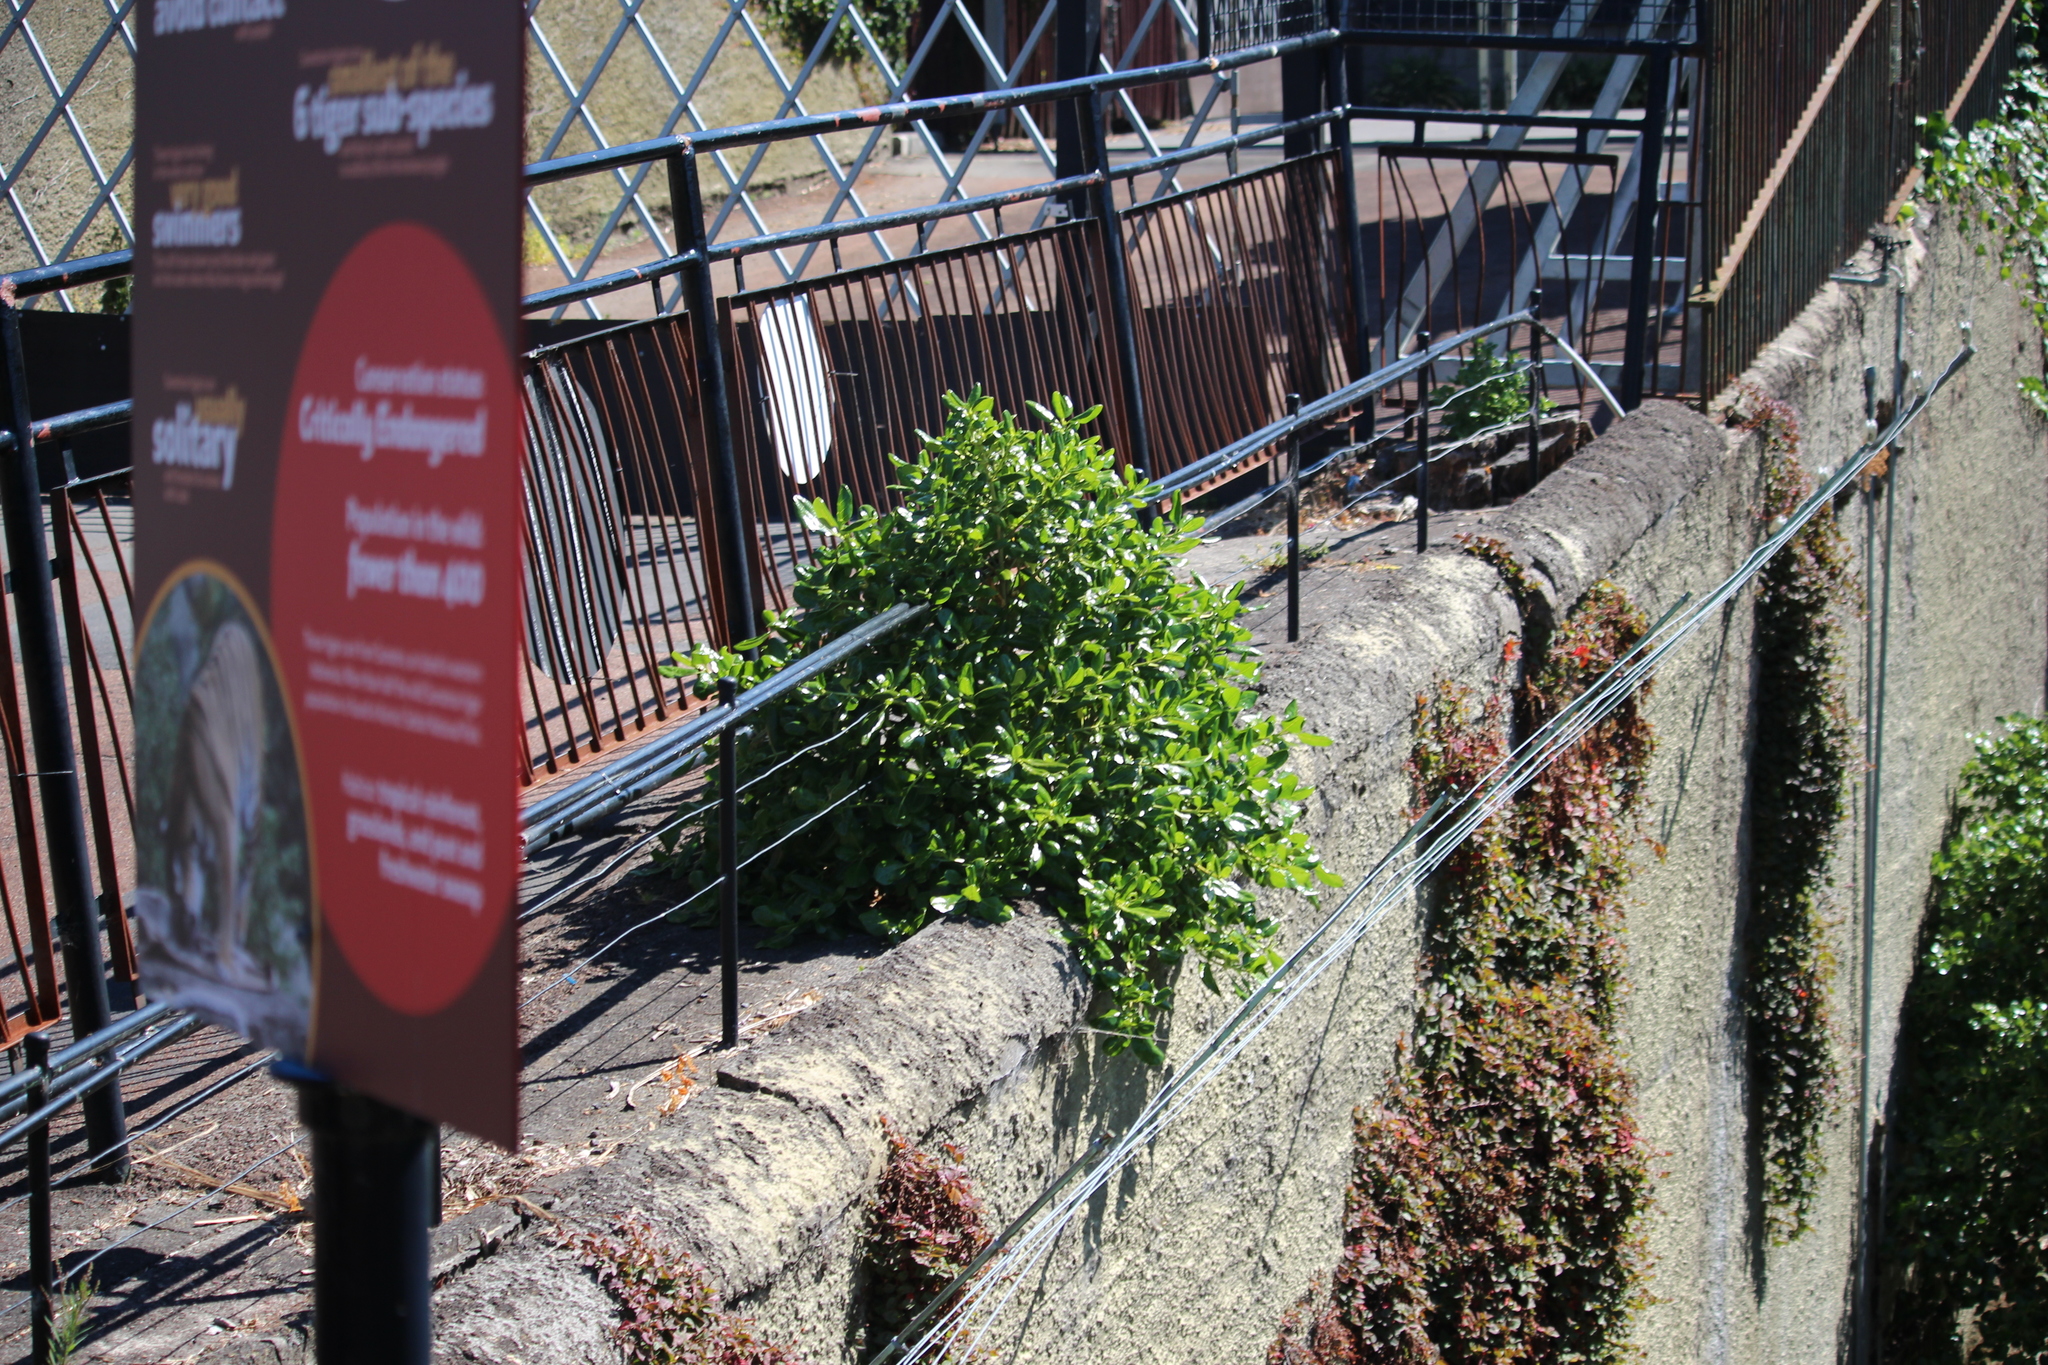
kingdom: Plantae
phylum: Tracheophyta
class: Magnoliopsida
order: Gentianales
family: Rubiaceae
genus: Coprosma
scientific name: Coprosma repens
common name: Tree bedstraw
